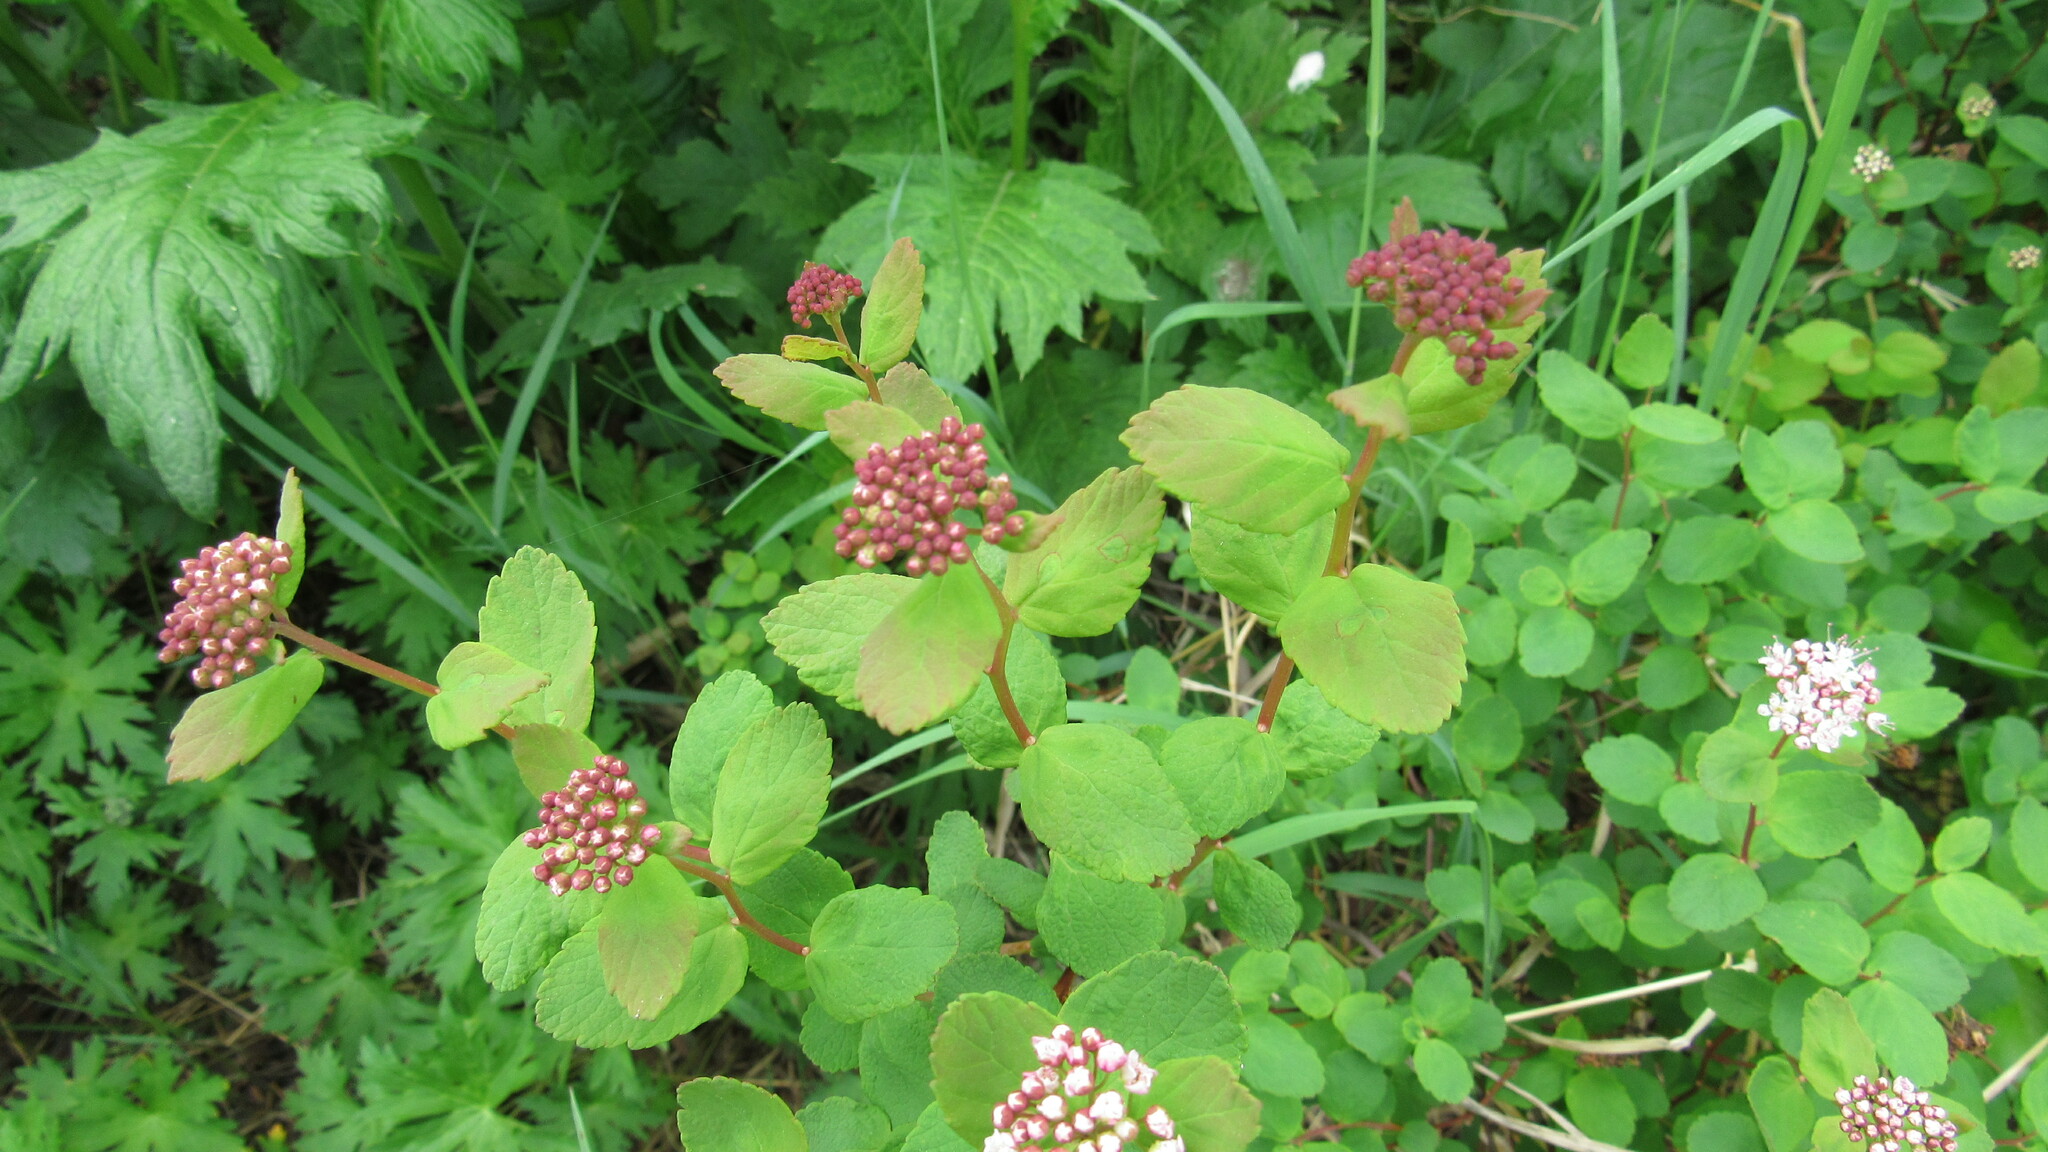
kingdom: Plantae
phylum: Tracheophyta
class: Magnoliopsida
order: Rosales
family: Rosaceae
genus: Spiraea
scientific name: Spiraea betulifolia
